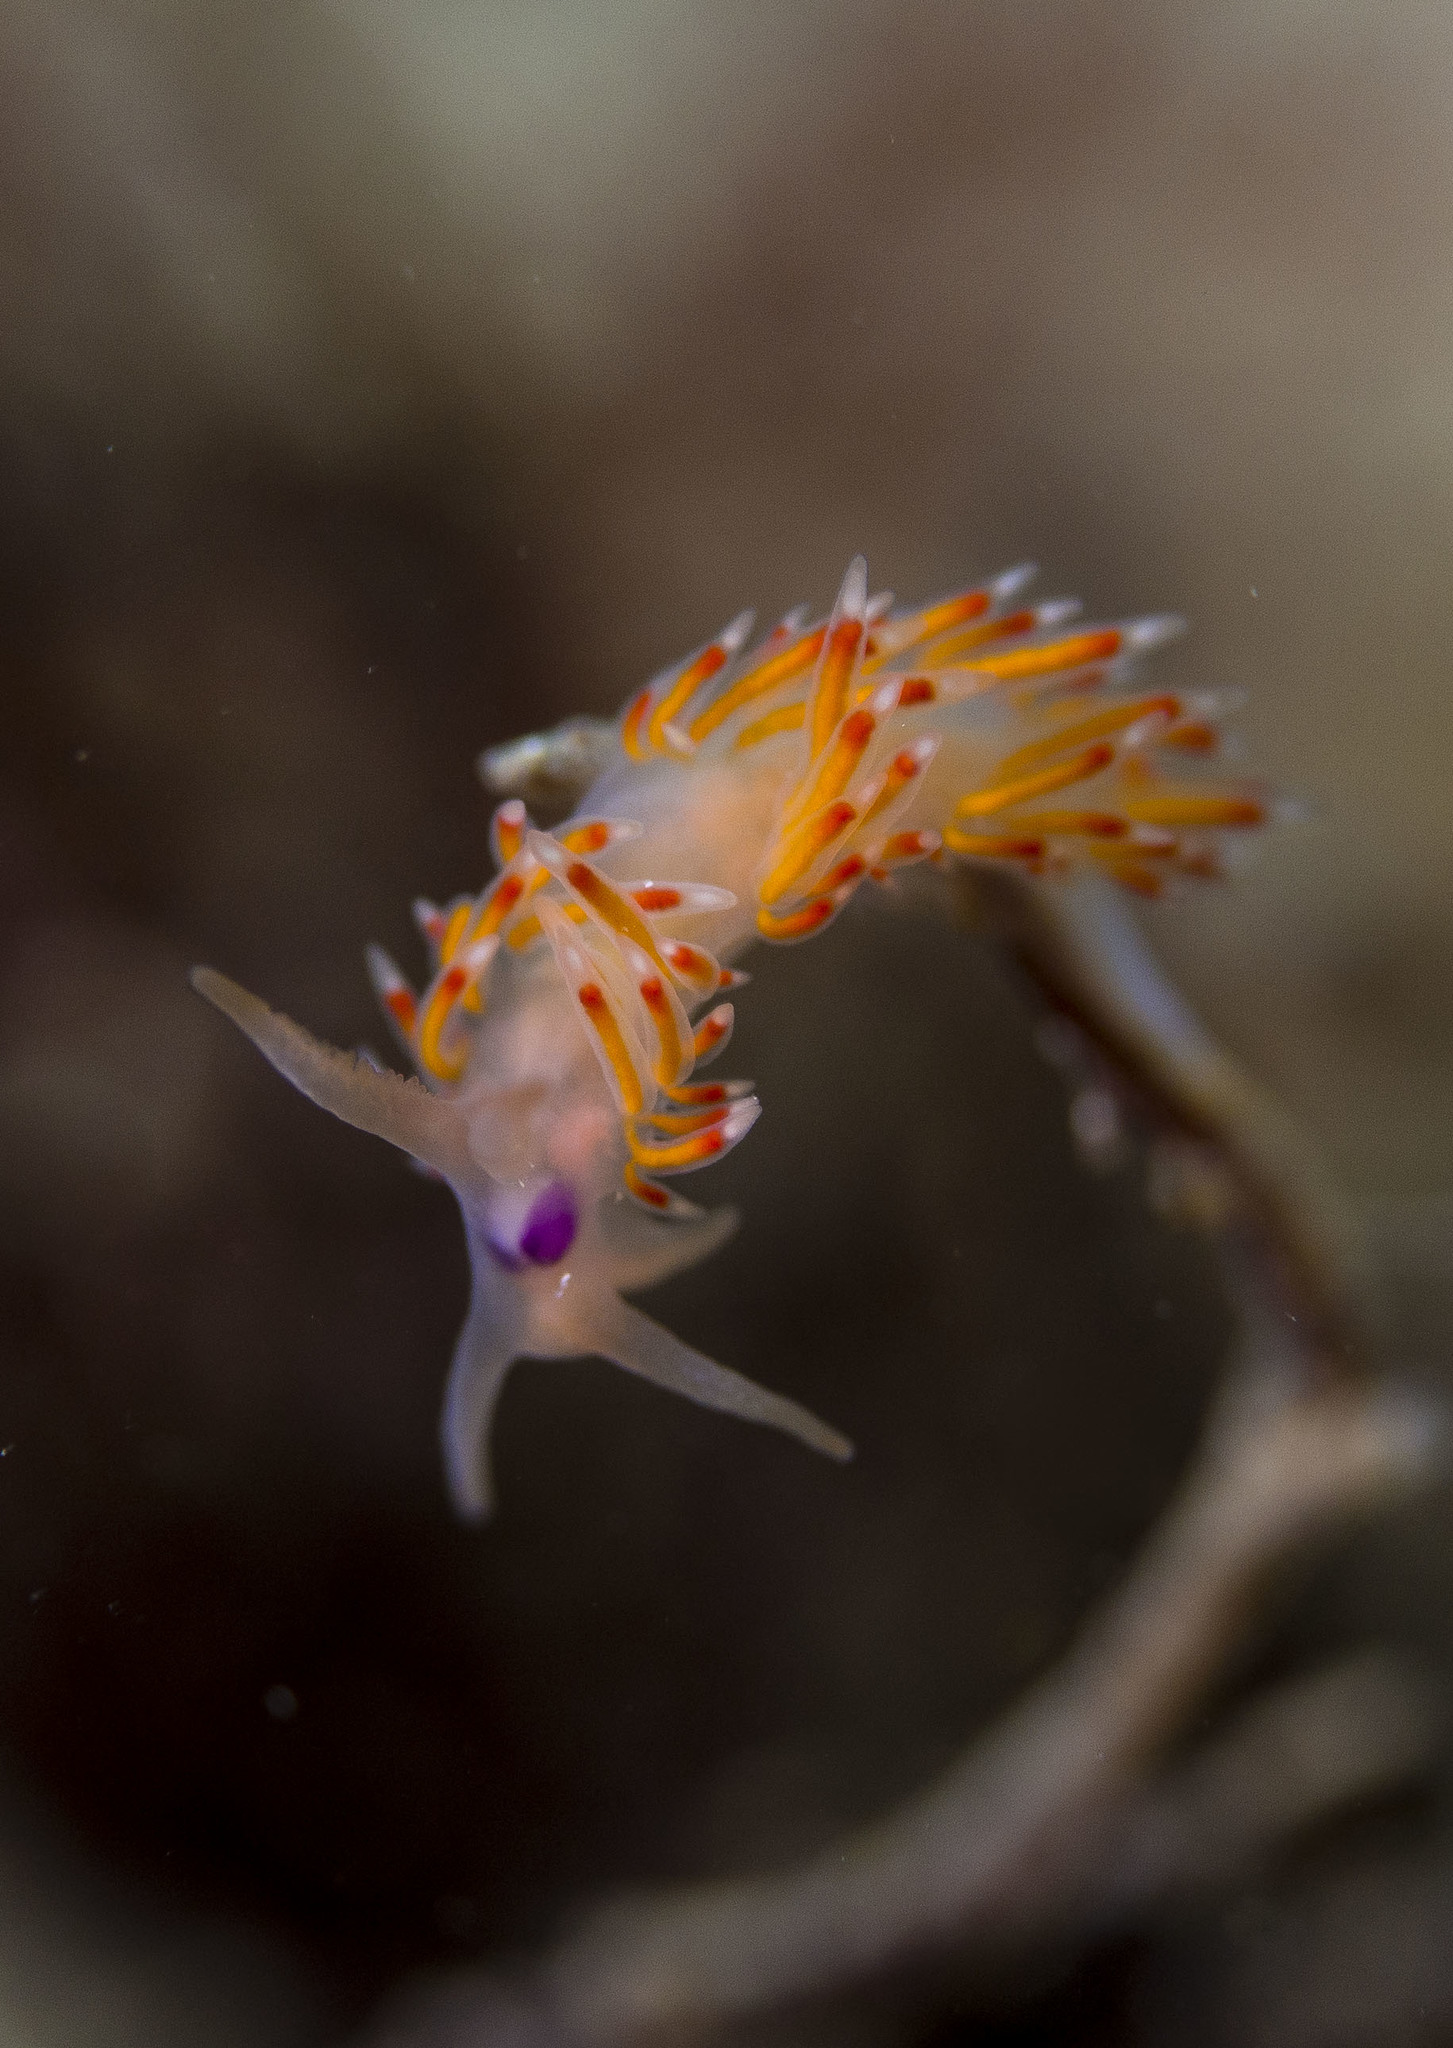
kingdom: Animalia
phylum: Mollusca
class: Gastropoda
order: Nudibranchia
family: Flabellinidae
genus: Coryphellina
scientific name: Coryphellina poenicia
